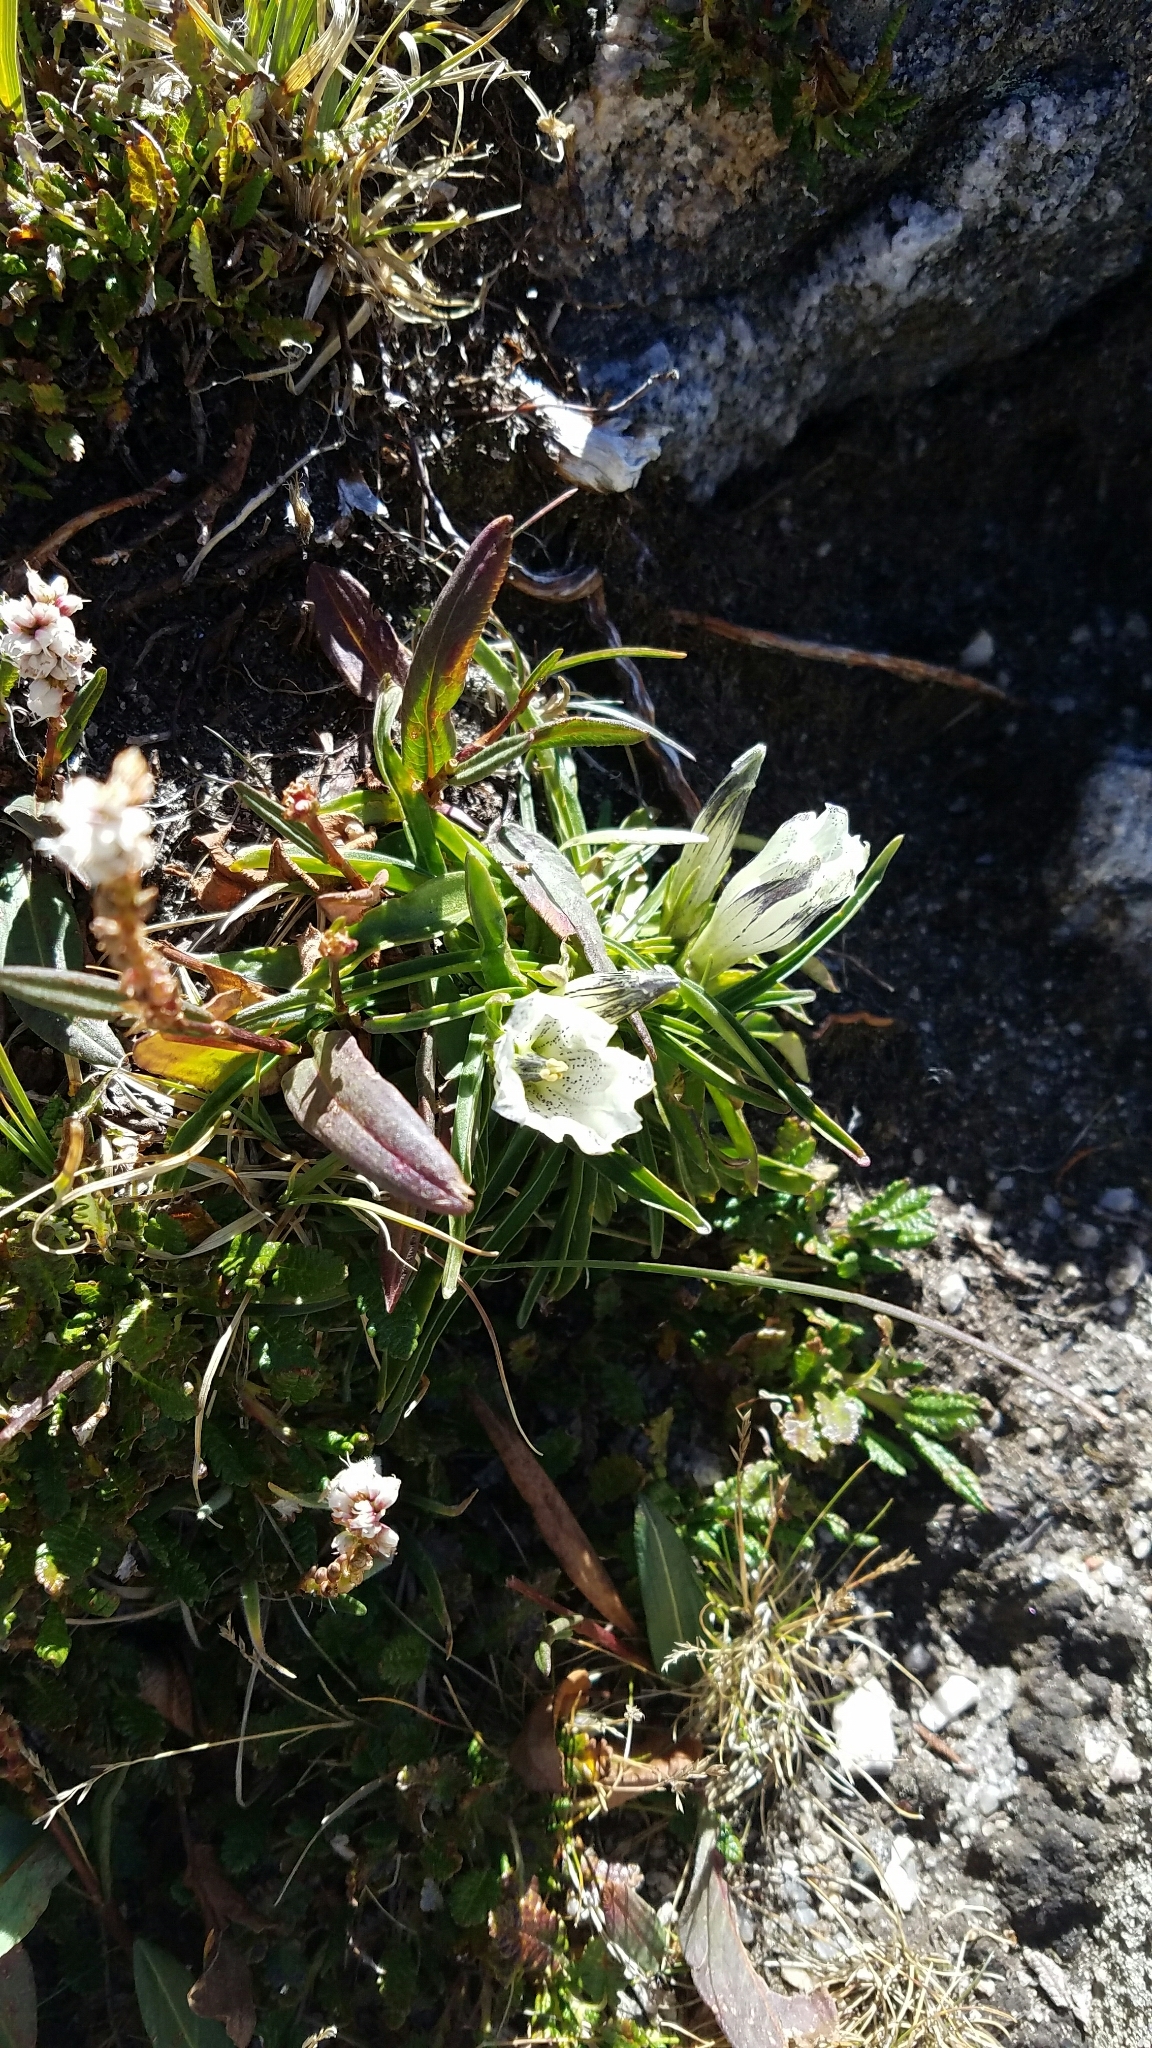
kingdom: Plantae
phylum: Tracheophyta
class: Magnoliopsida
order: Gentianales
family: Gentianaceae
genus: Gentiana
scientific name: Gentiana algida
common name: Arctic gentian
